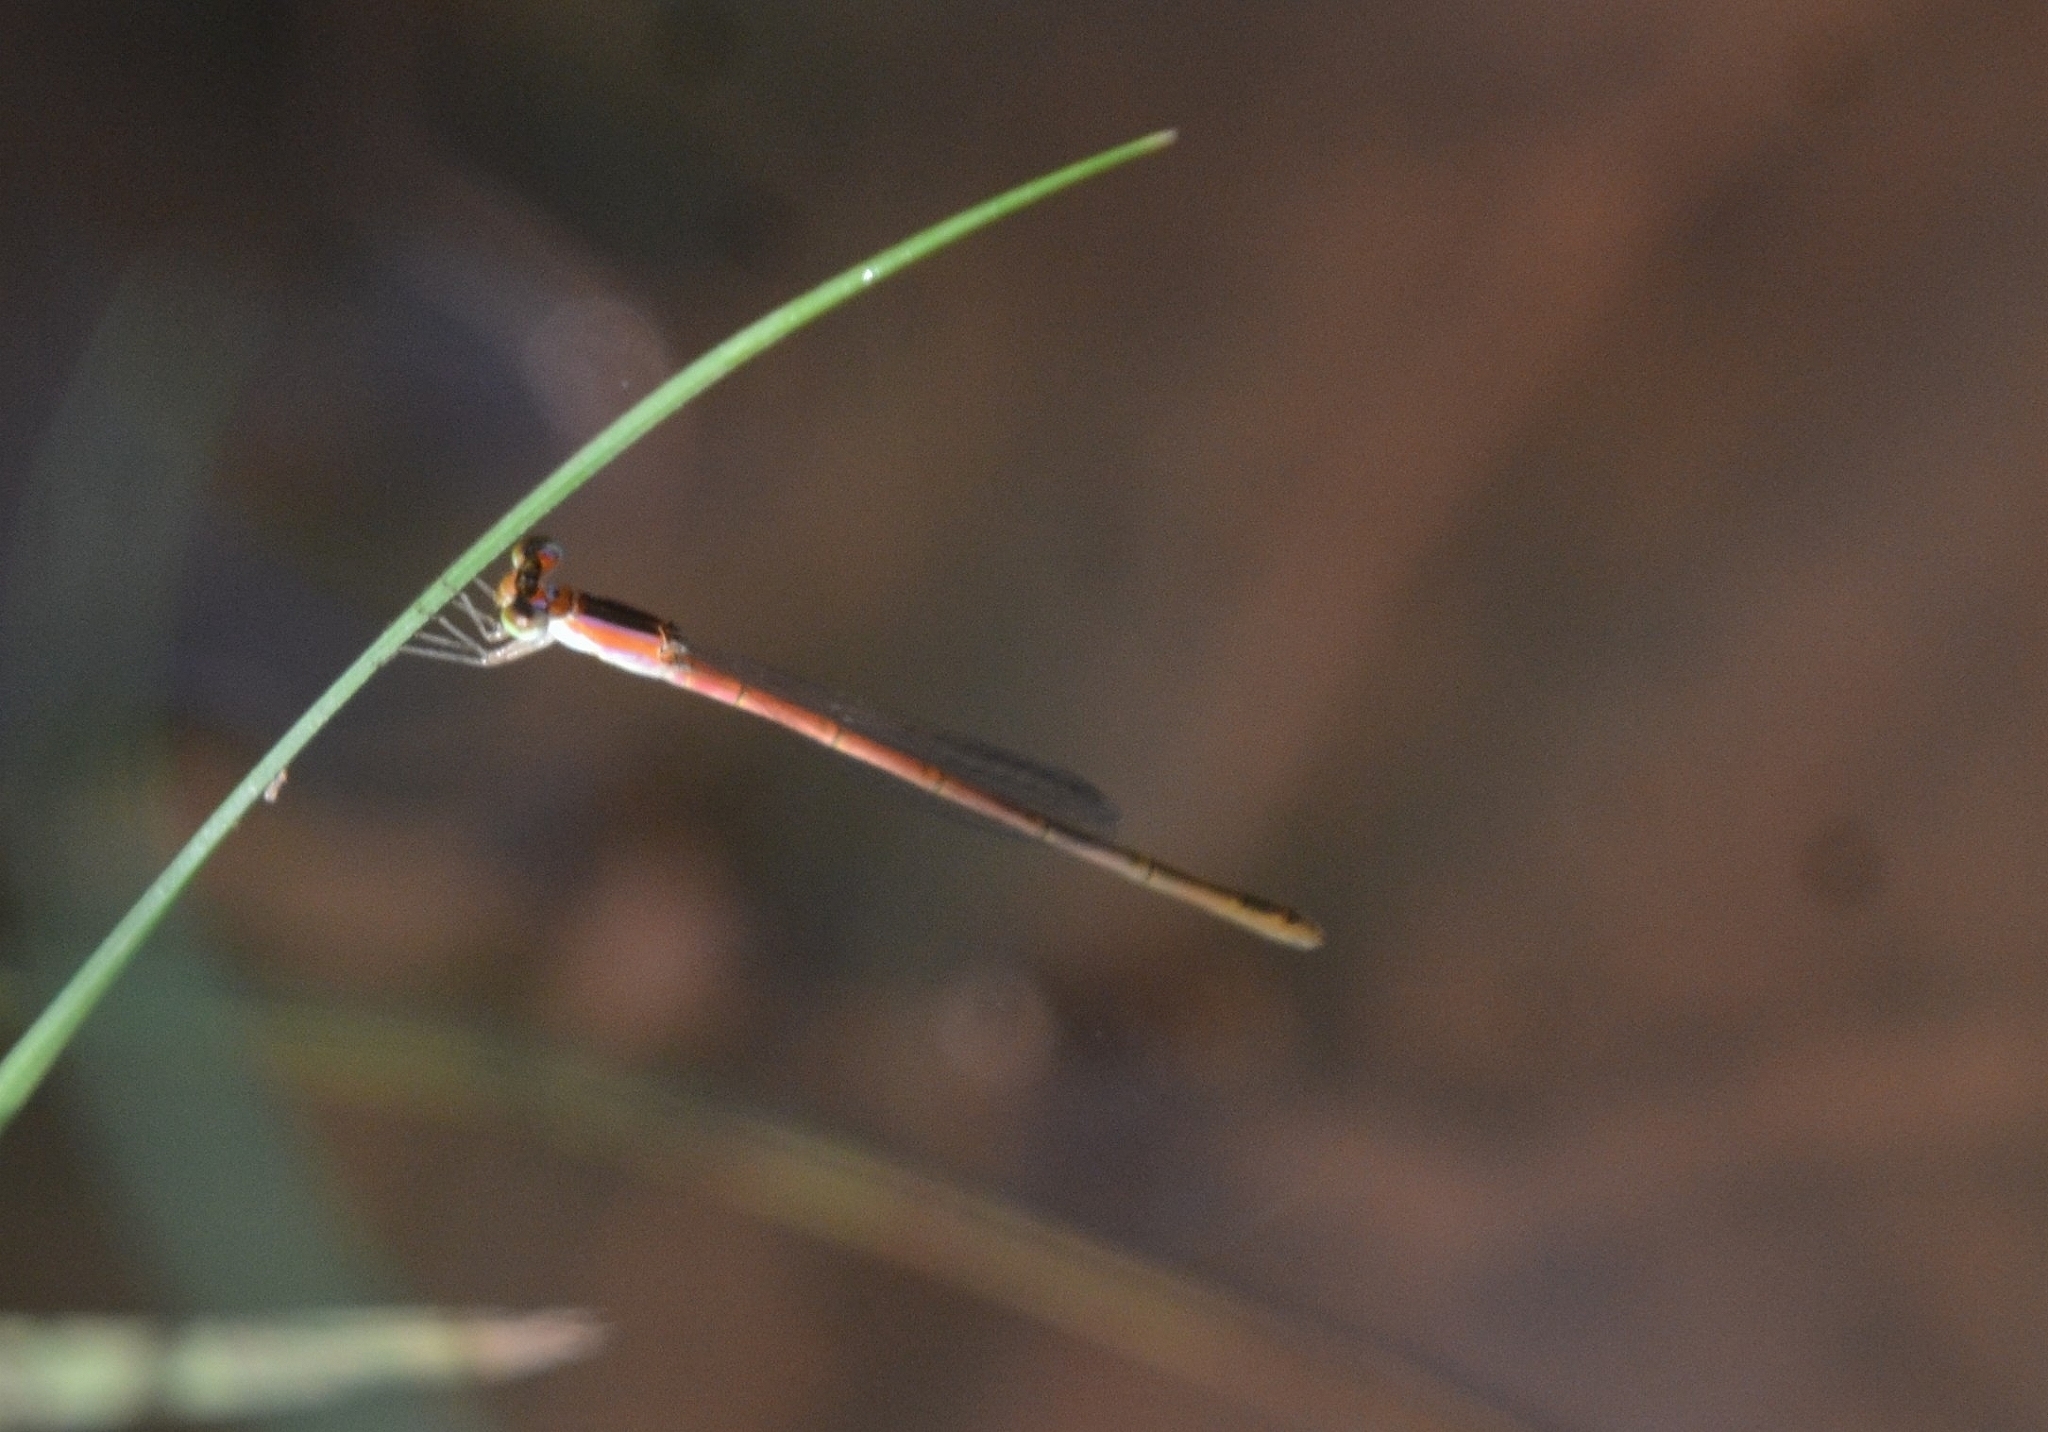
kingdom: Animalia
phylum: Arthropoda
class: Insecta
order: Odonata
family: Coenagrionidae
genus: Agriocnemis
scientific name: Agriocnemis pygmaea
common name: Pygmy wisp
